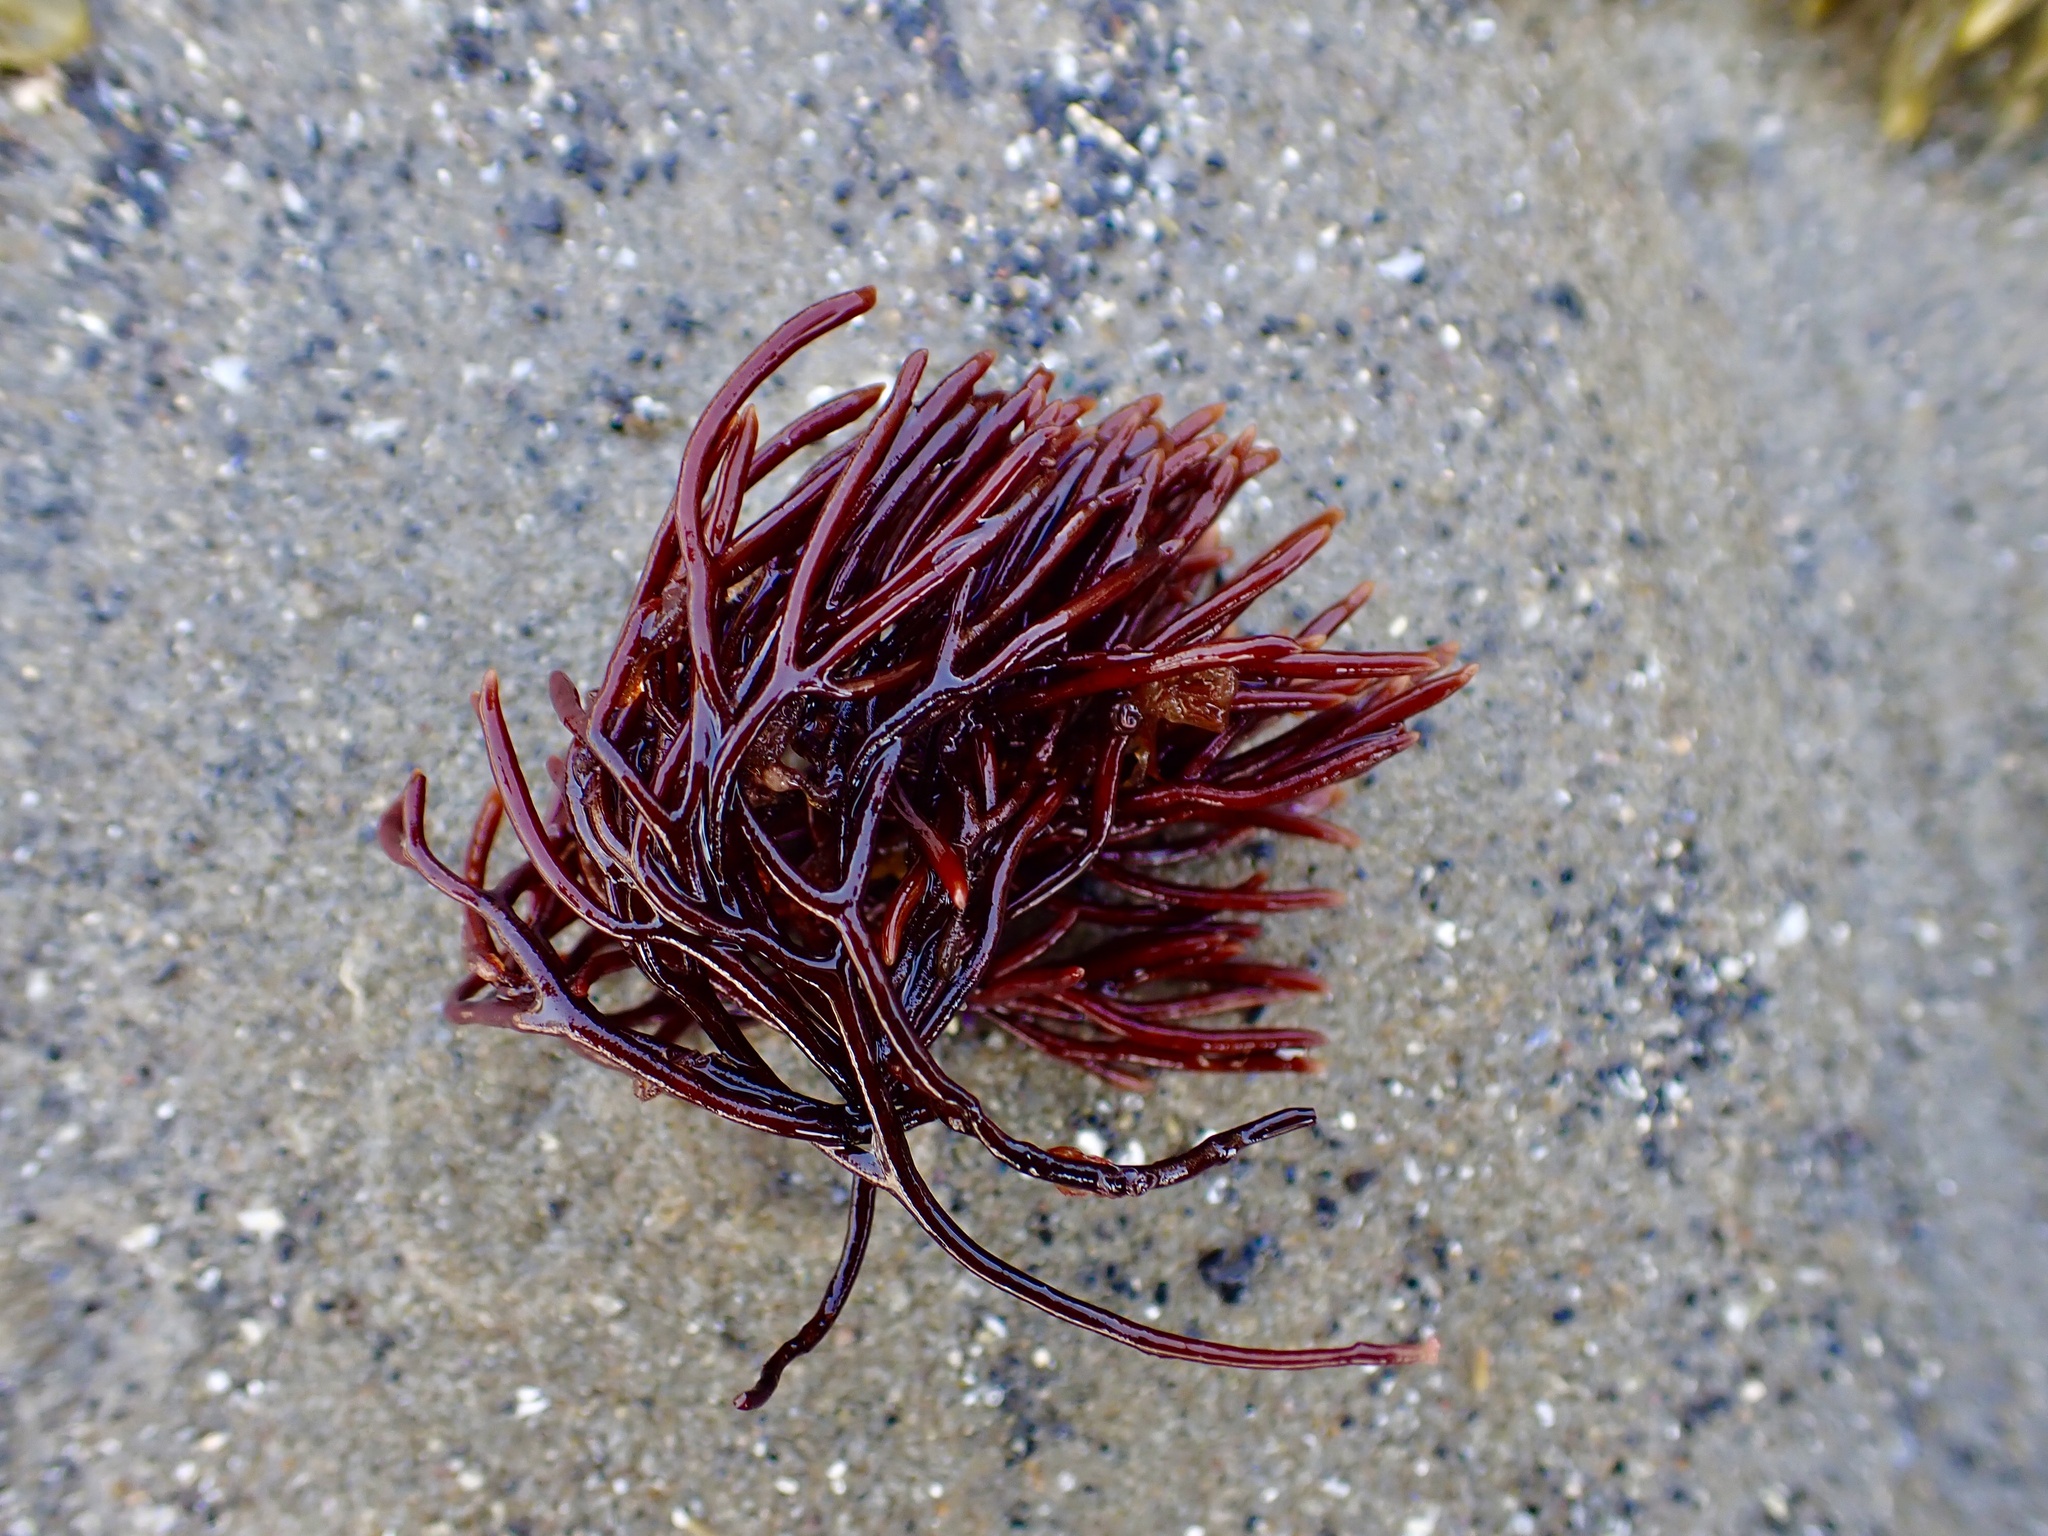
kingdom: Plantae
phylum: Rhodophyta
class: Florideophyceae
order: Gigartinales
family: Furcellariaceae
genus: Furcellaria
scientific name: Furcellaria lumbricalis
